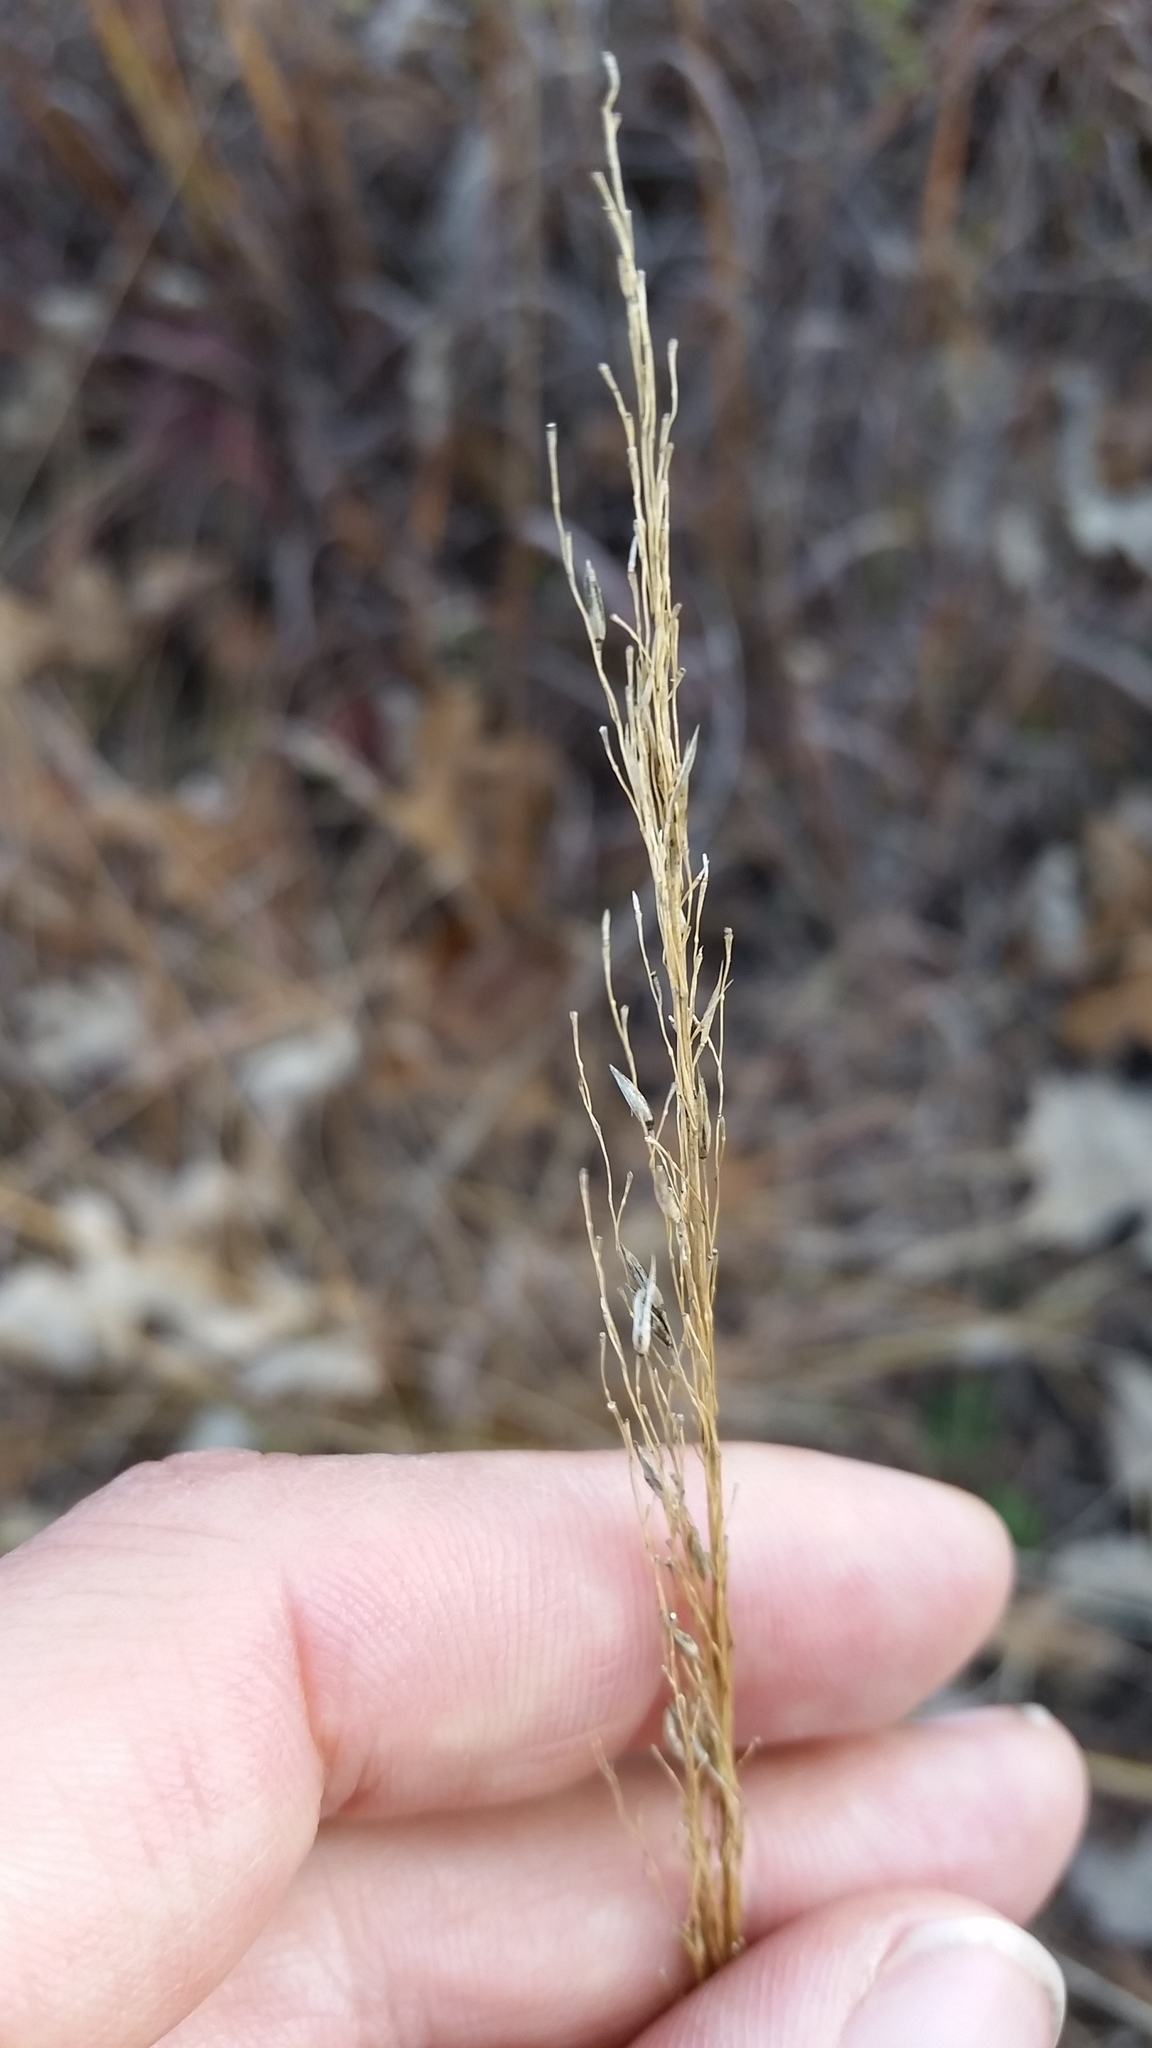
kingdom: Plantae
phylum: Tracheophyta
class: Liliopsida
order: Poales
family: Poaceae
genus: Sporobolus
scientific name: Sporobolus heterolepis
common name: Prairie dropseed
